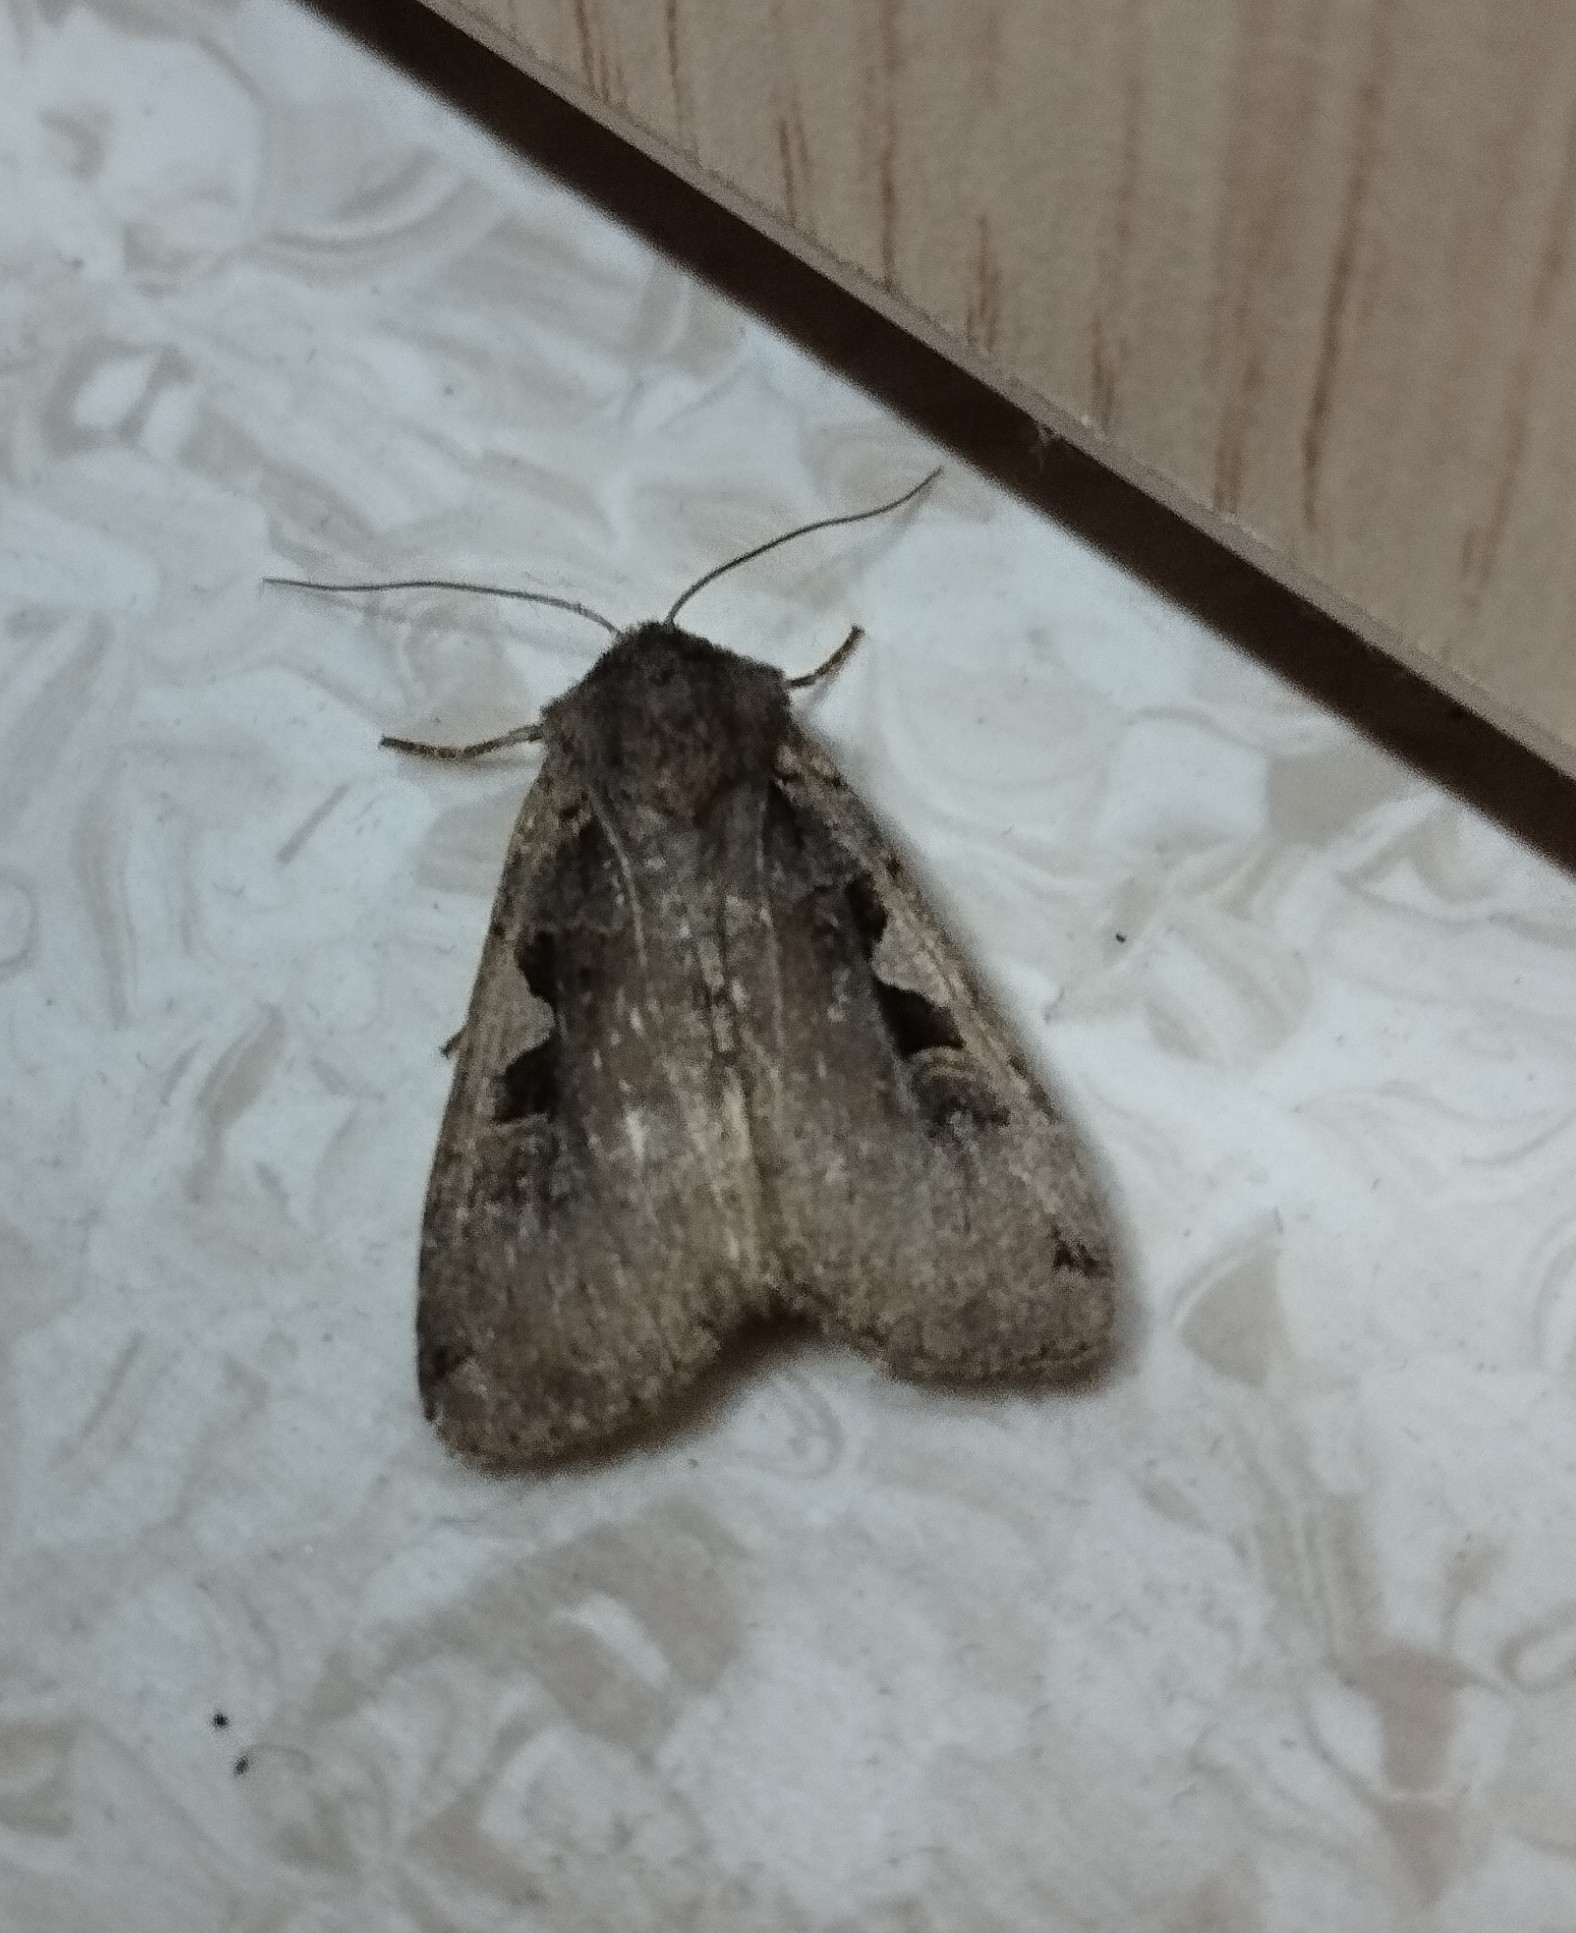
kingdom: Animalia
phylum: Arthropoda
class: Insecta
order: Lepidoptera
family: Noctuidae
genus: Xestia
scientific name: Xestia c-nigrum
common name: Setaceous hebrew character
